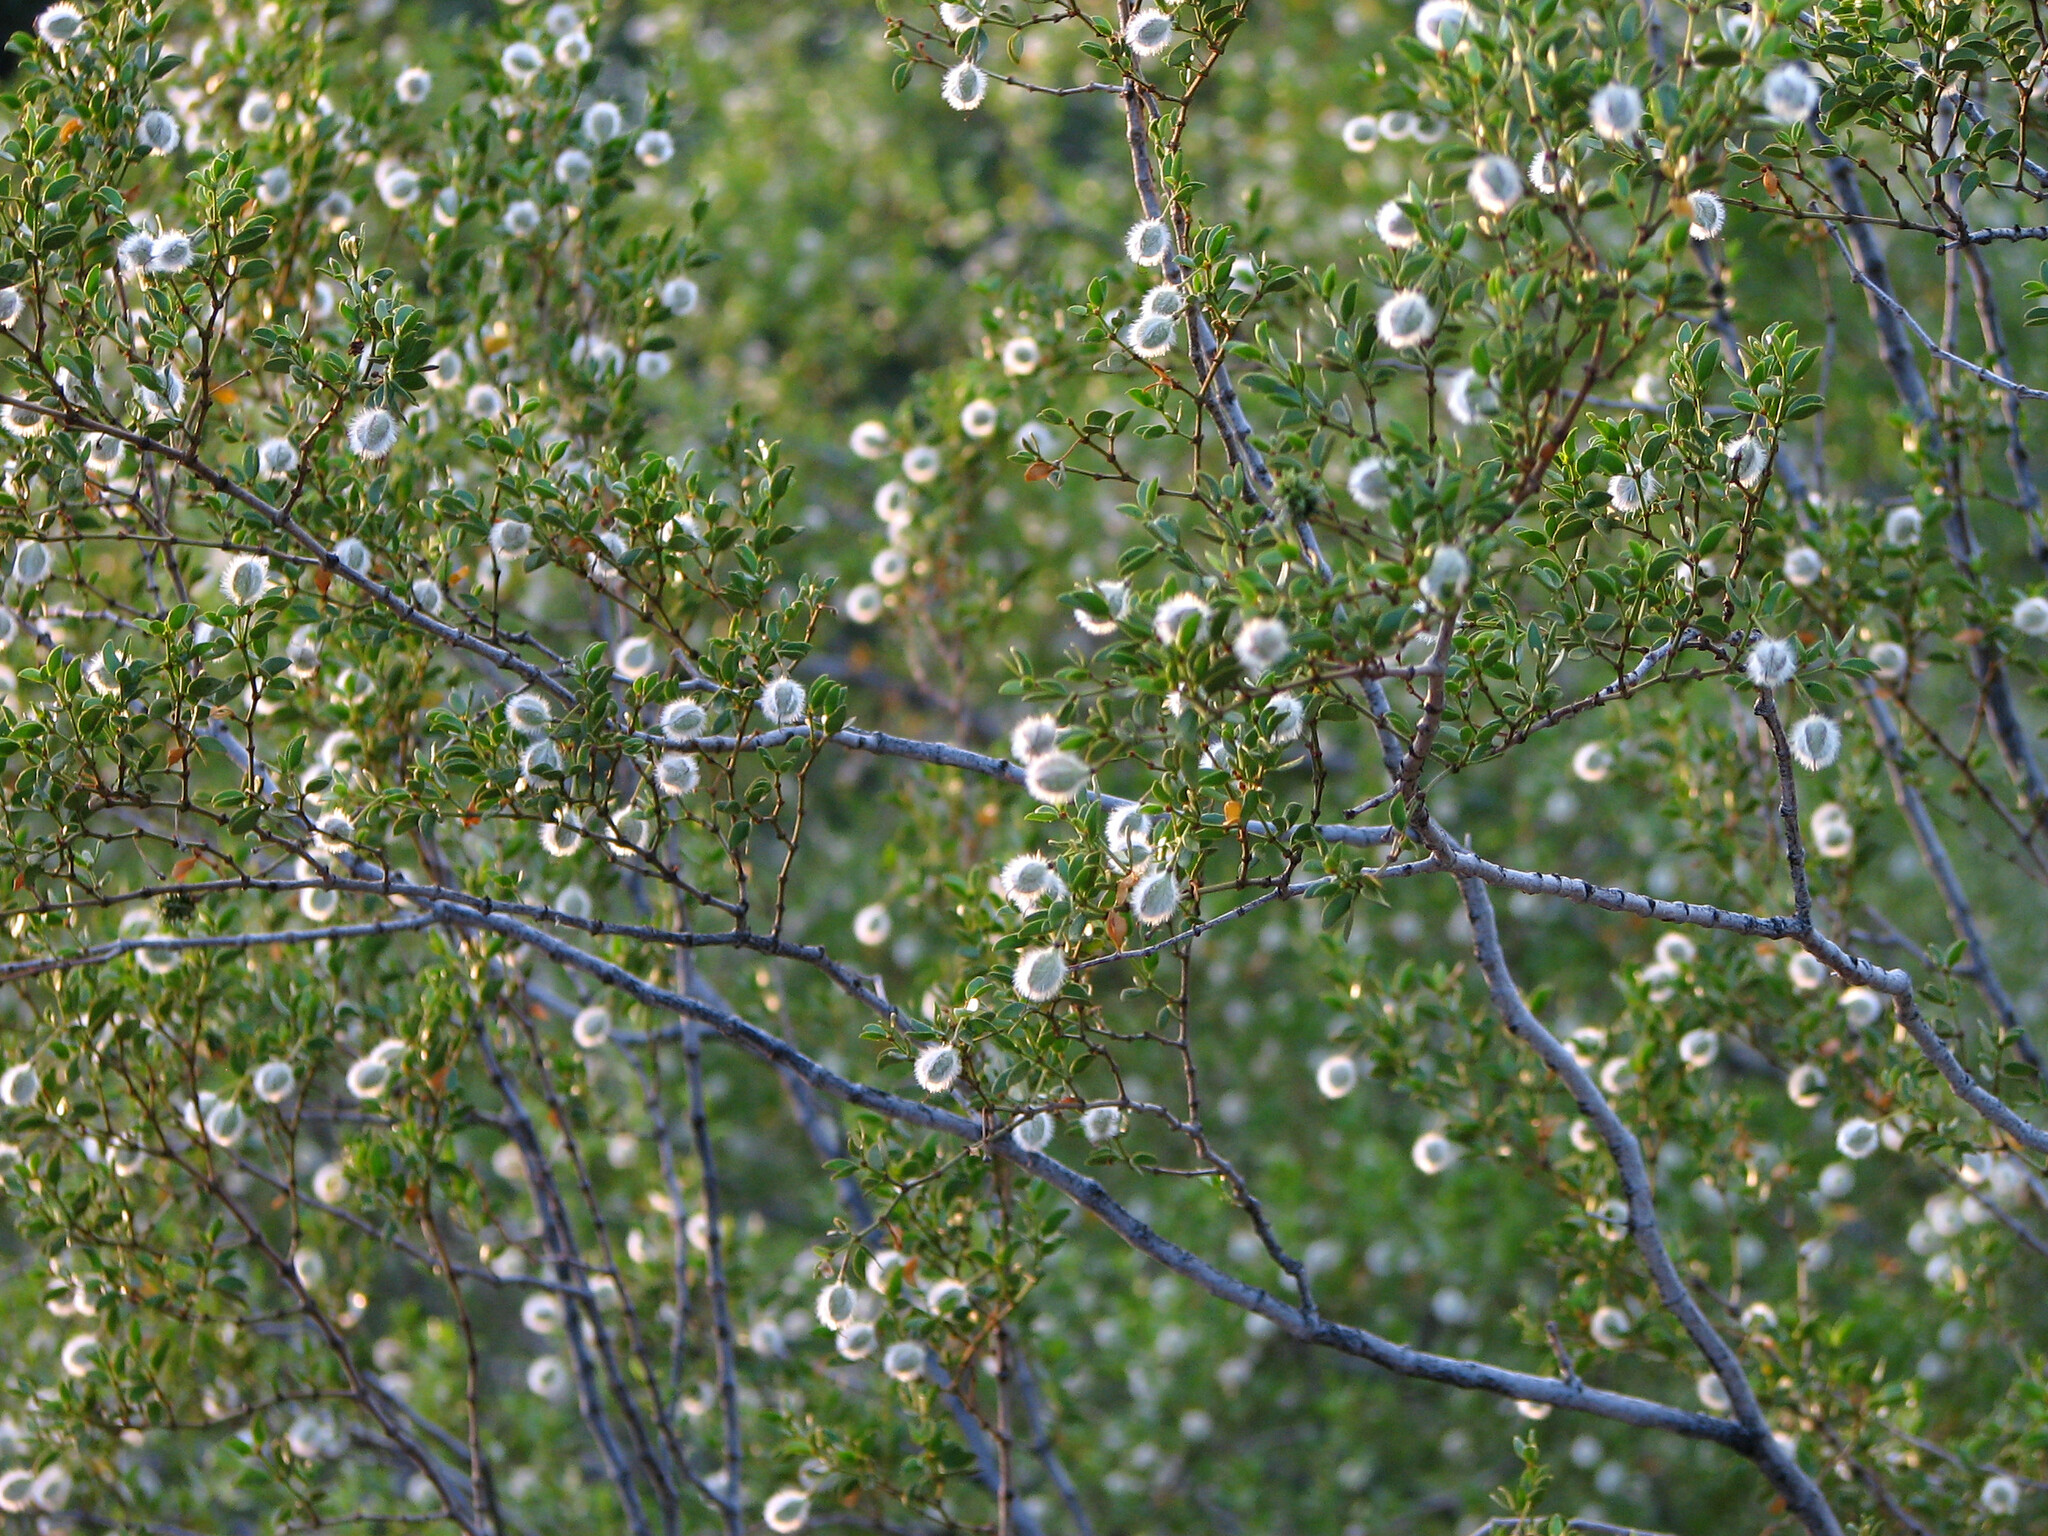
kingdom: Plantae
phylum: Tracheophyta
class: Magnoliopsida
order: Zygophyllales
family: Zygophyllaceae
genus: Larrea
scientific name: Larrea tridentata
